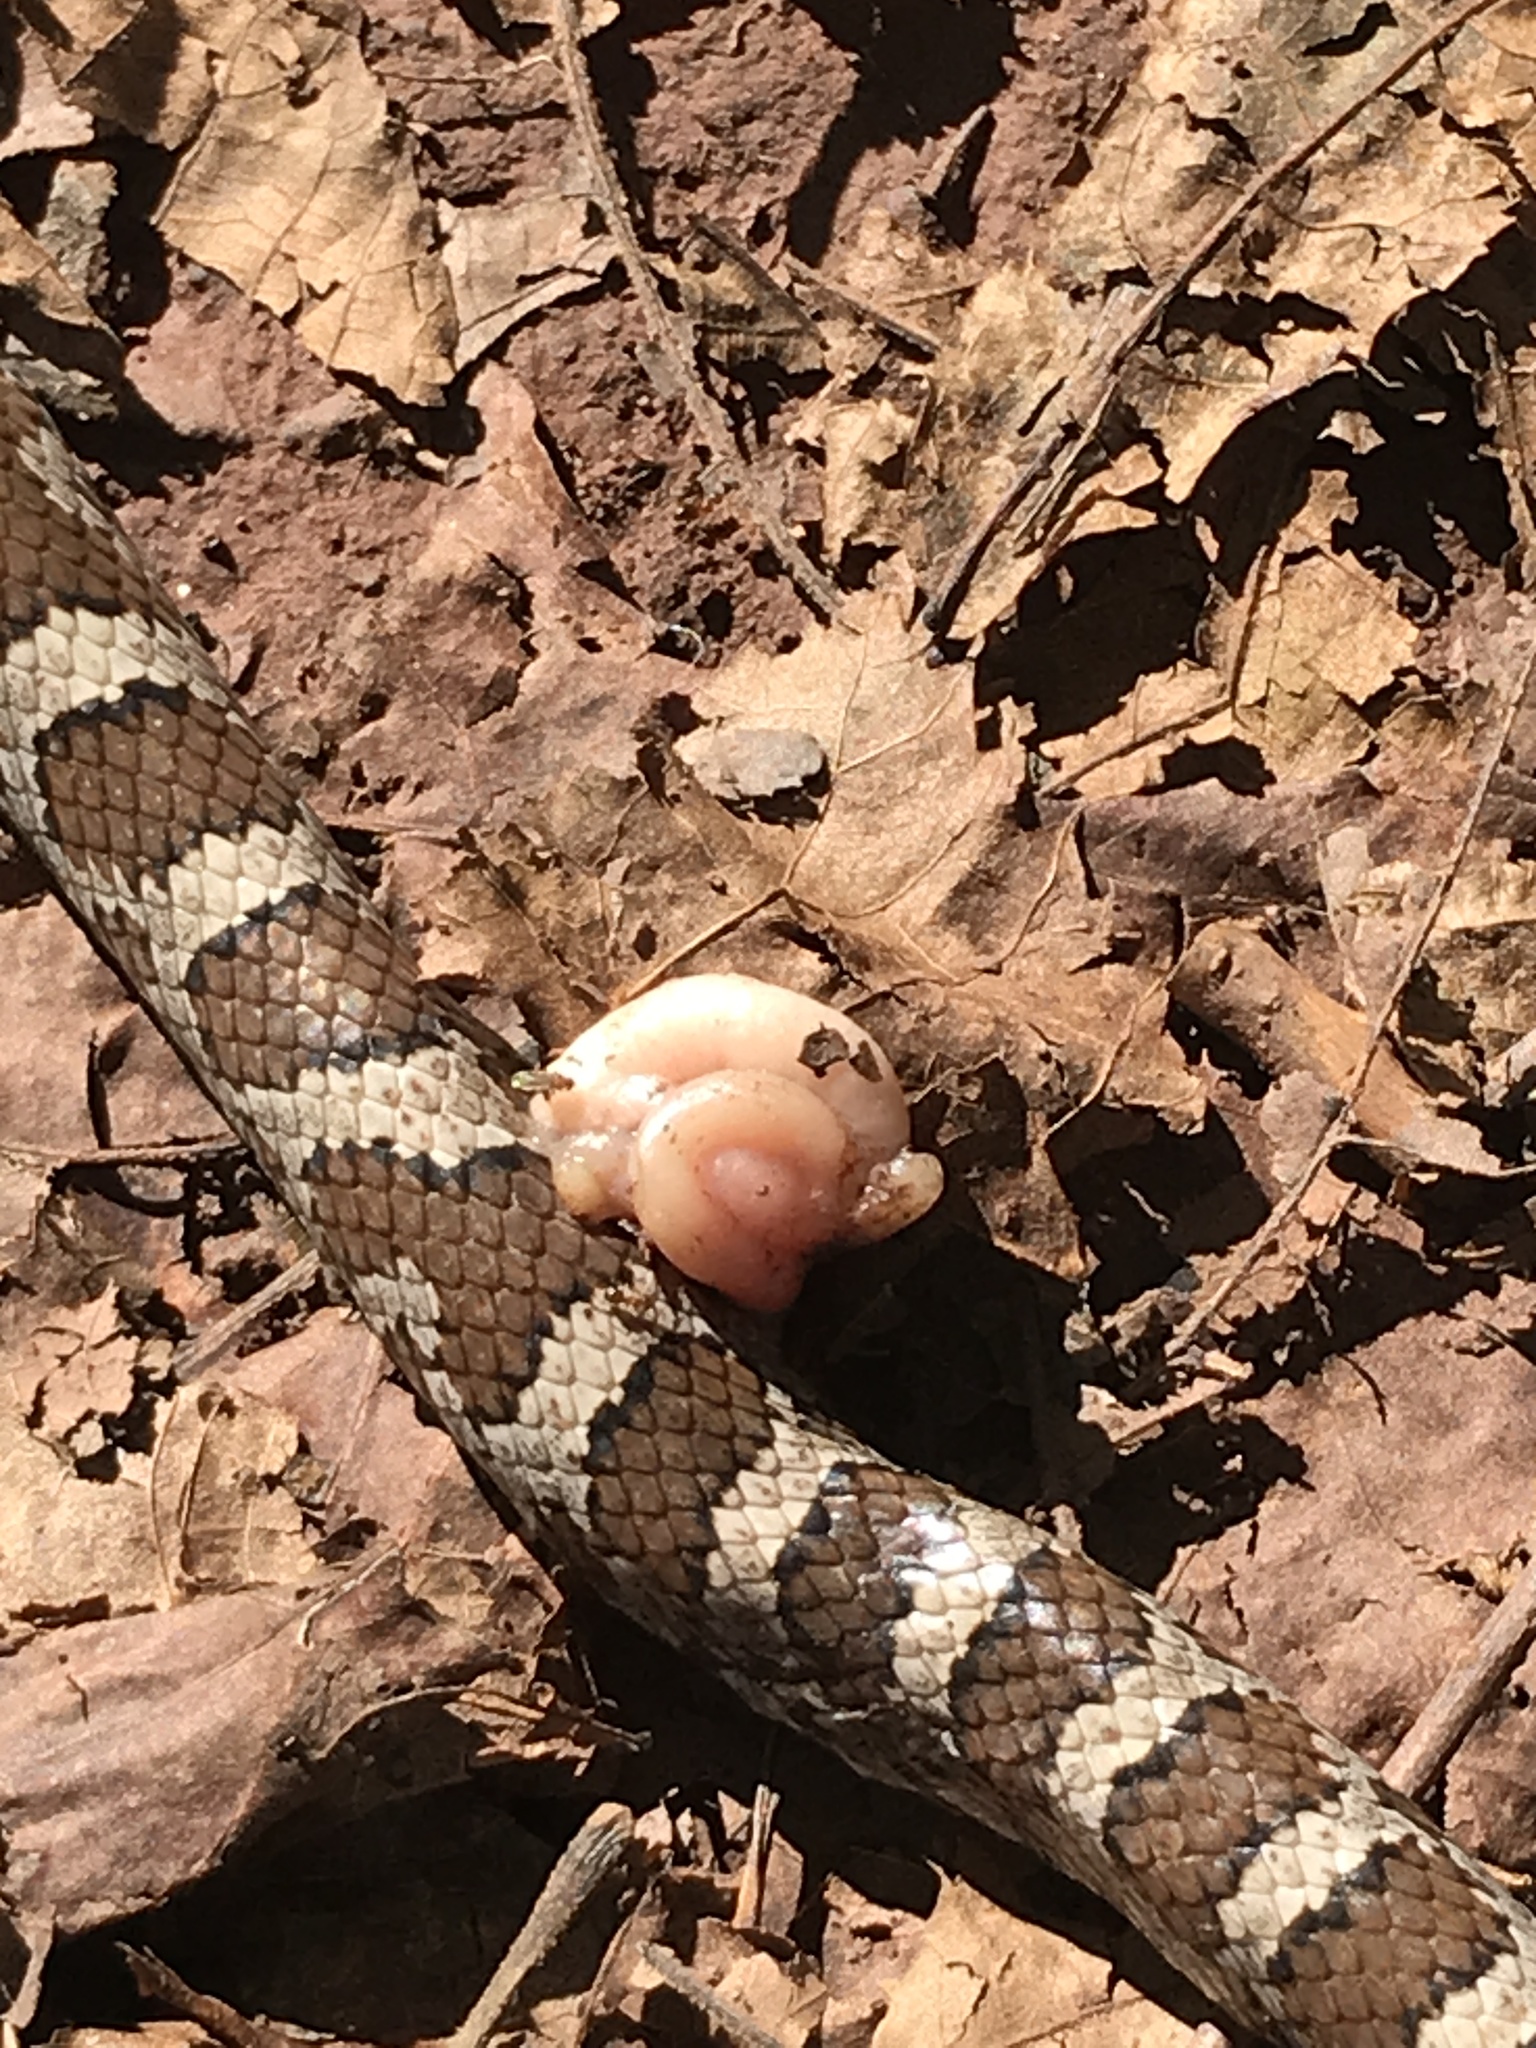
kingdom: Animalia
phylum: Chordata
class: Squamata
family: Colubridae
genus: Lampropeltis
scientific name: Lampropeltis triangulum
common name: Eastern milksnake
